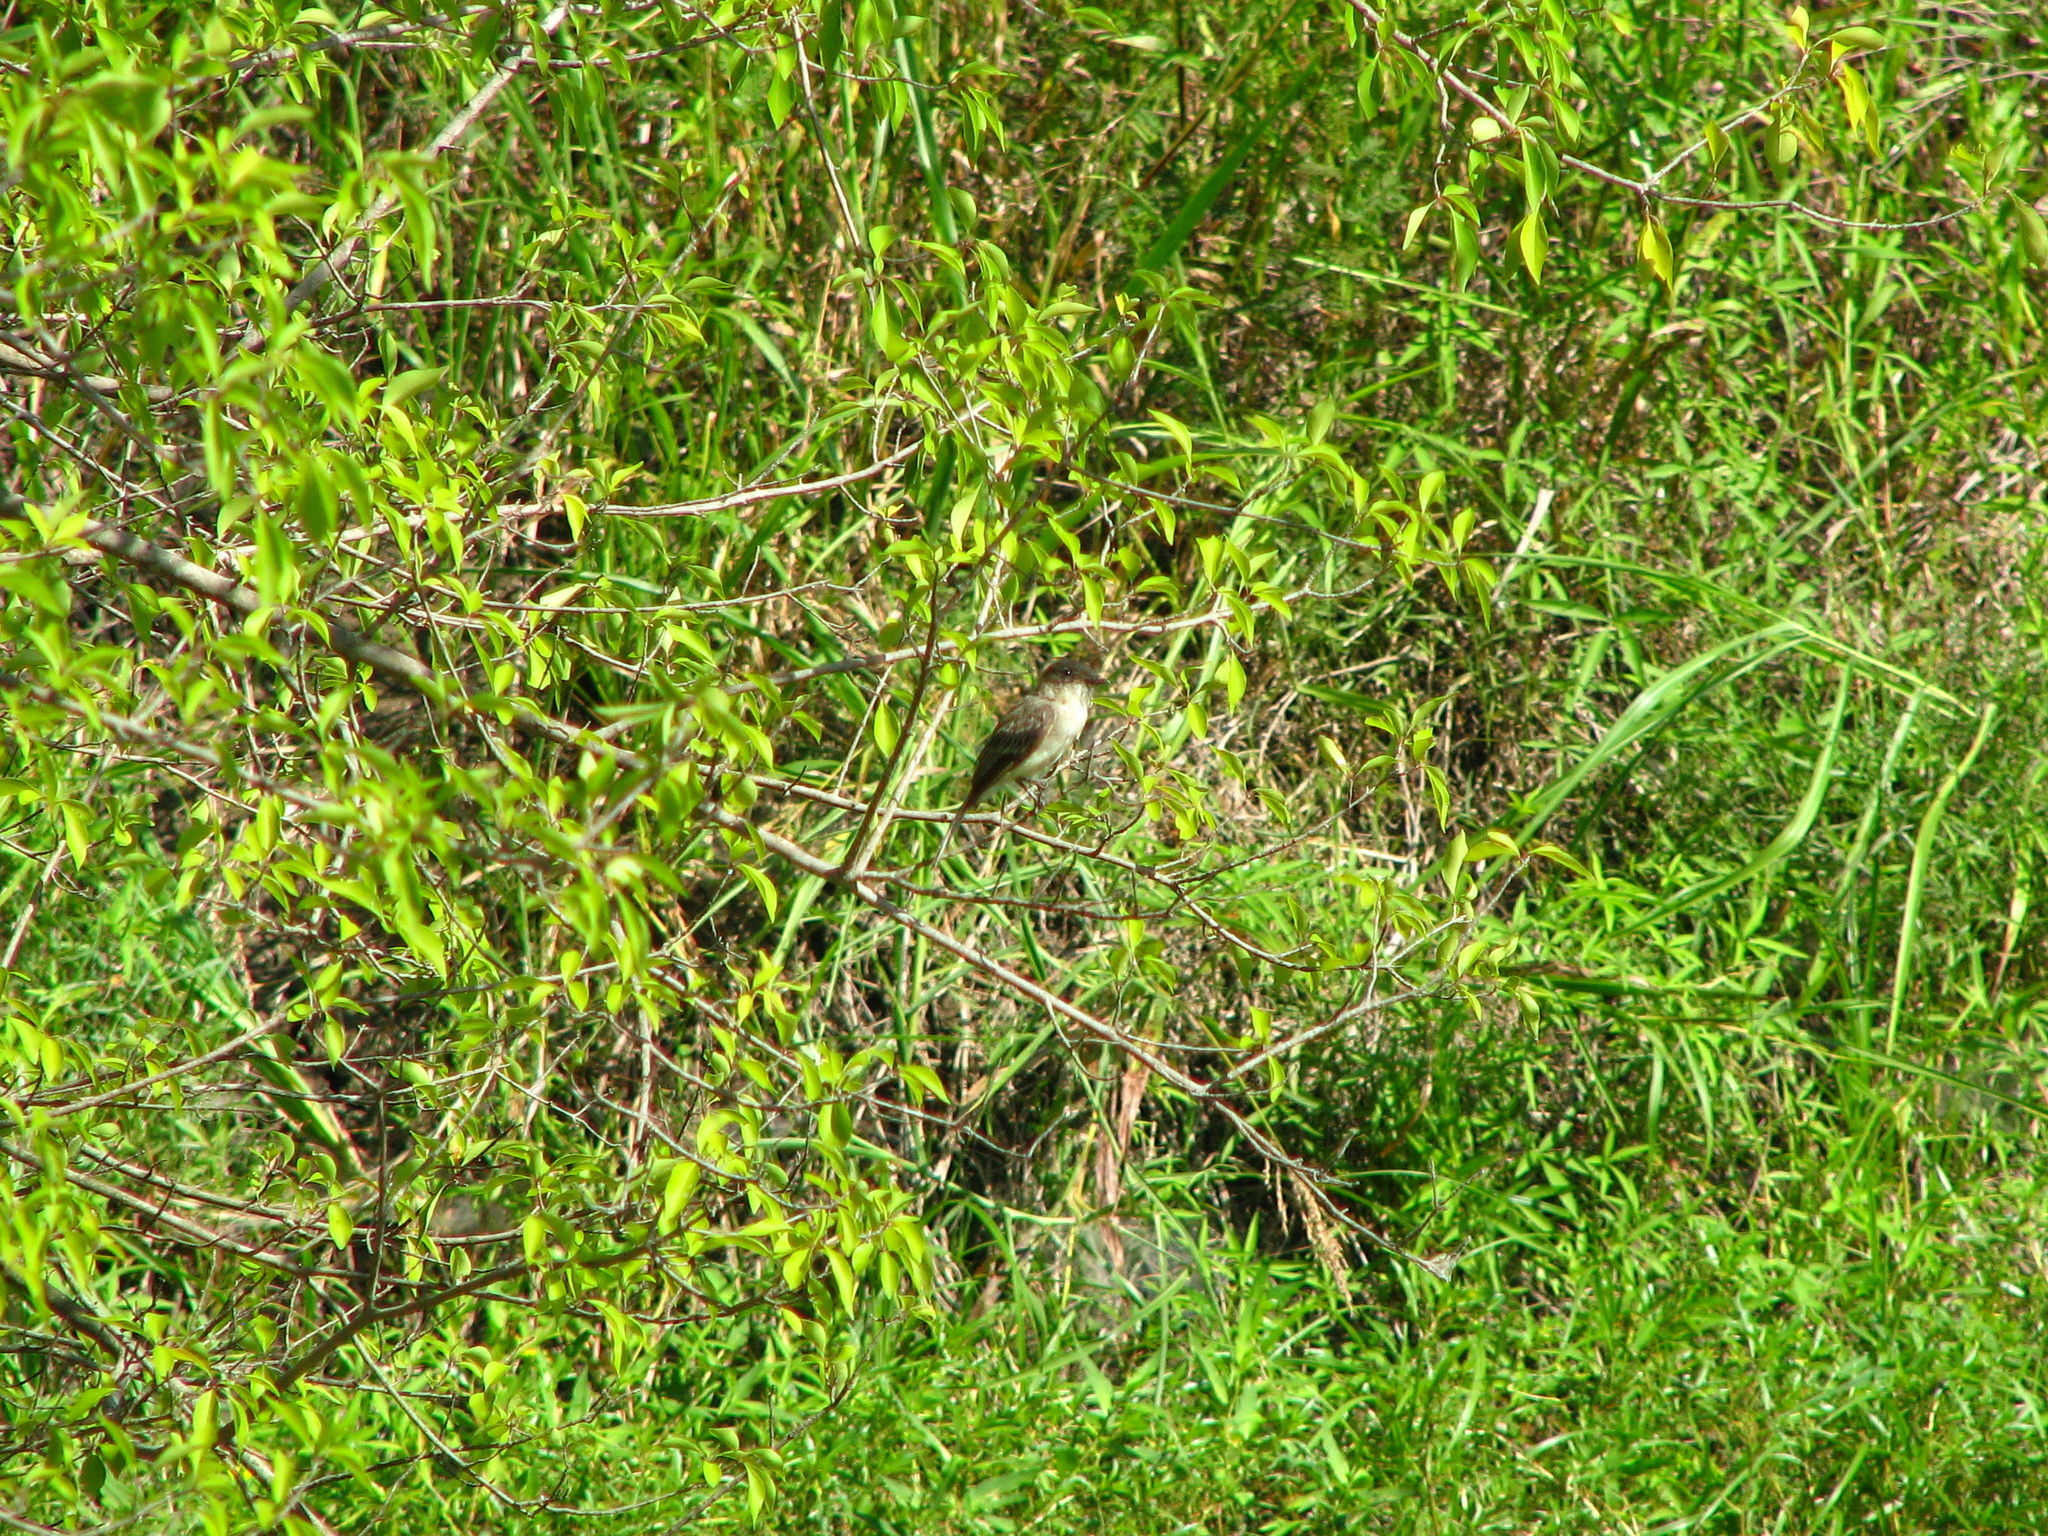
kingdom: Animalia
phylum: Chordata
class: Aves
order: Passeriformes
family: Tyrannidae
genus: Sayornis
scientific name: Sayornis phoebe
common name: Eastern phoebe
